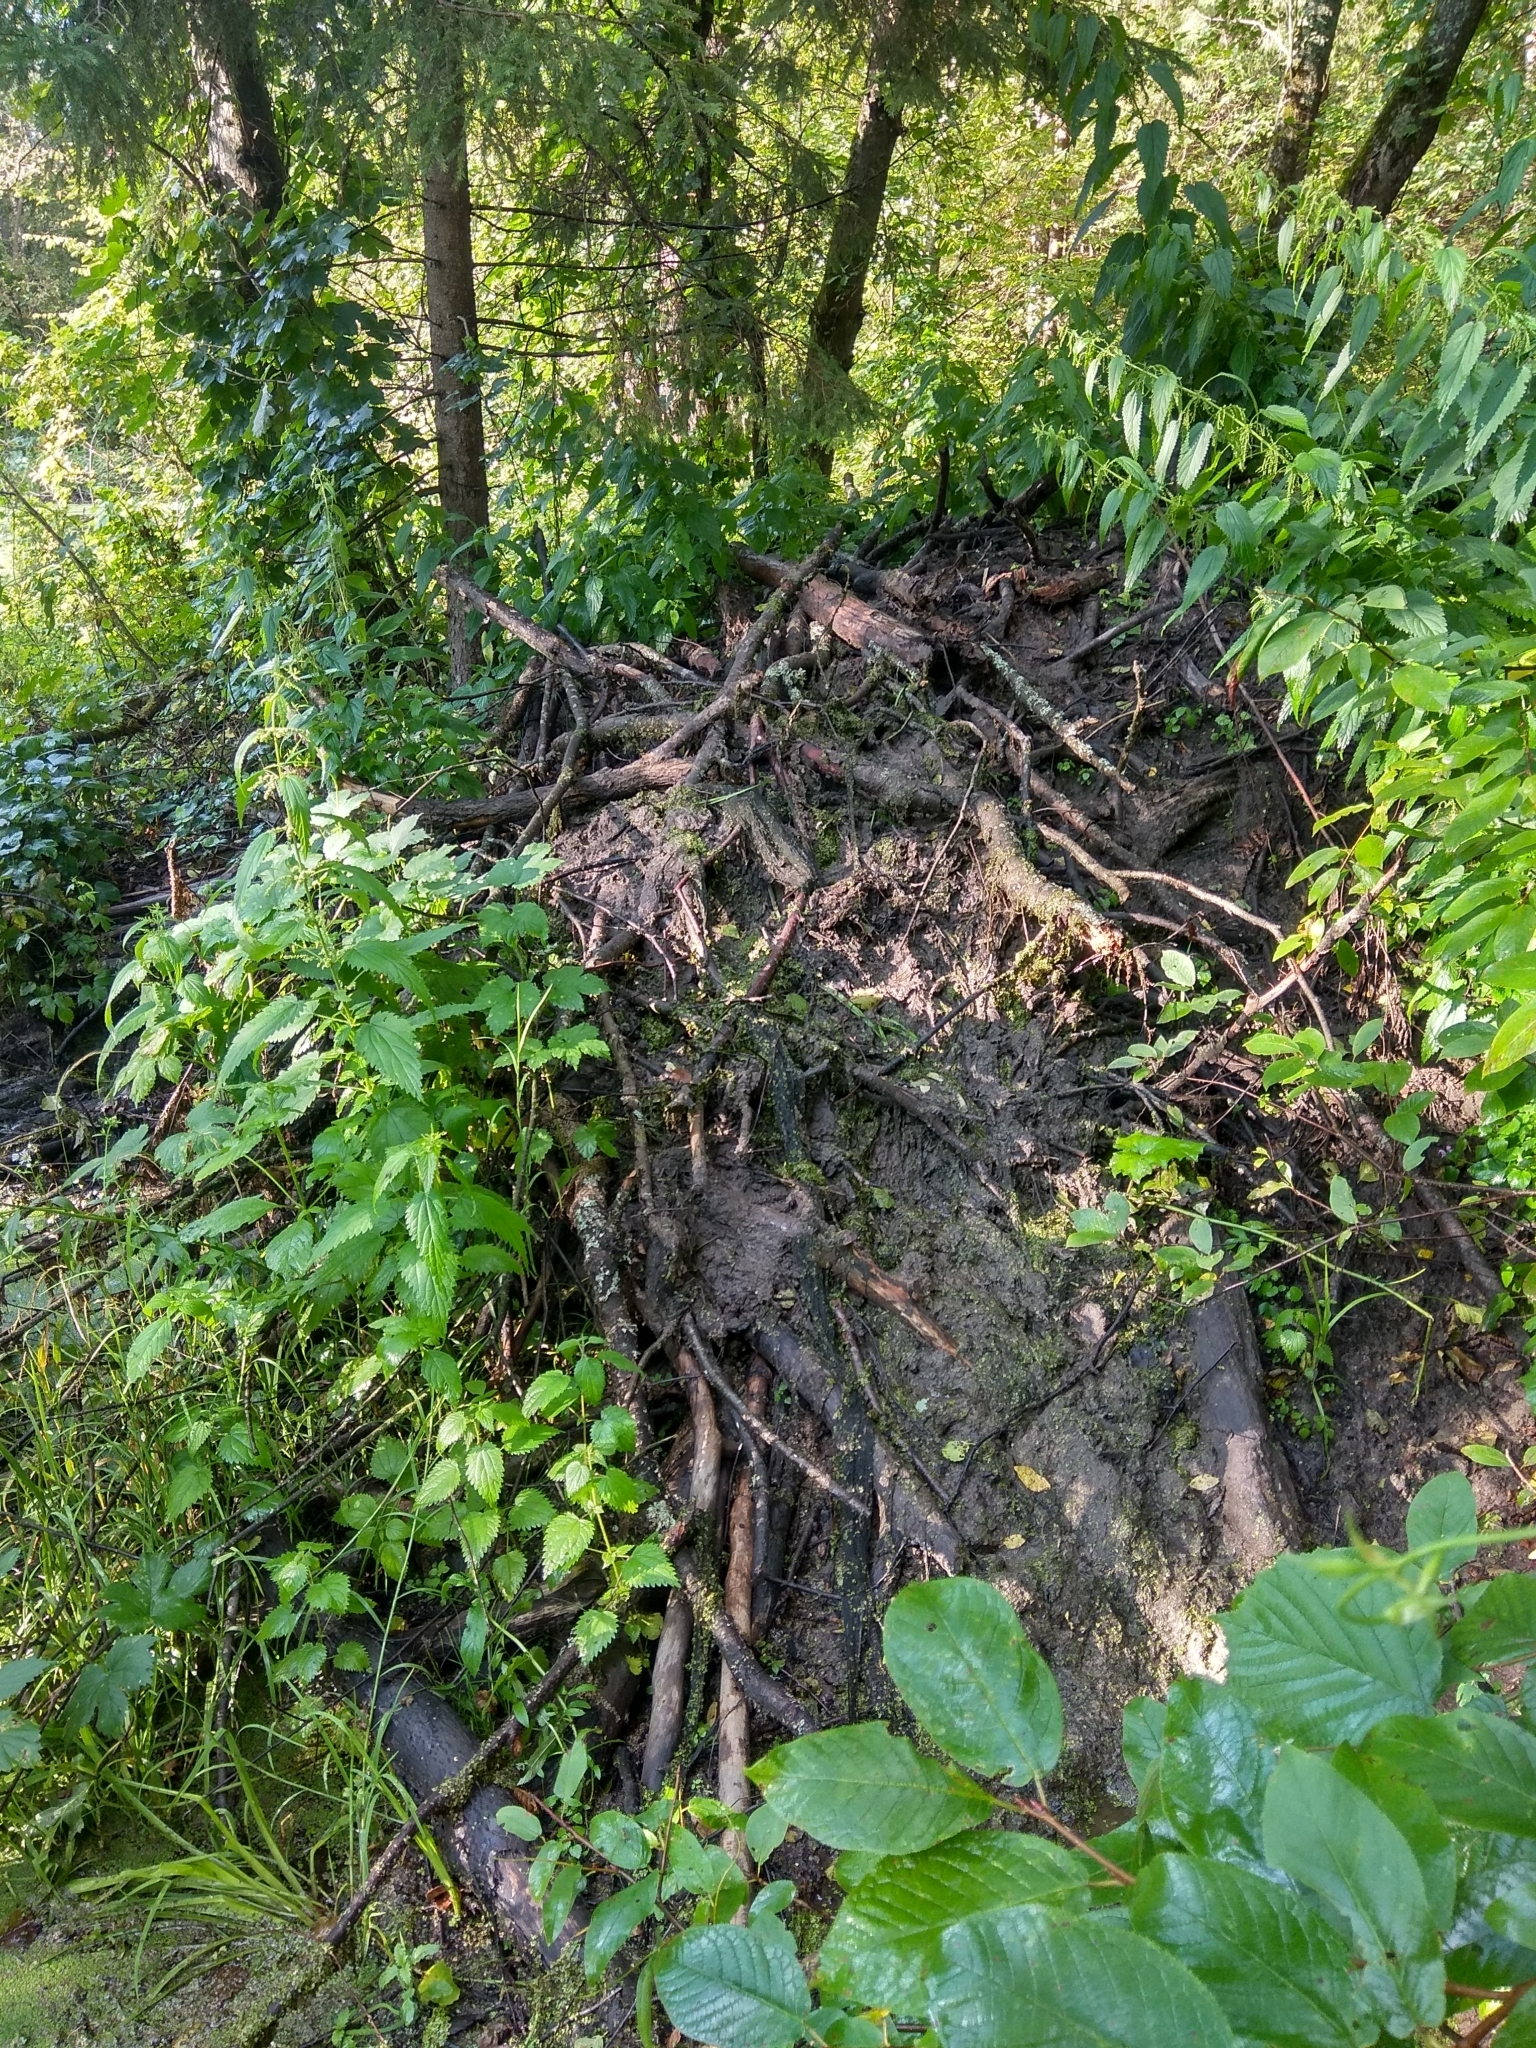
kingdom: Animalia
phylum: Chordata
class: Mammalia
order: Rodentia
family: Castoridae
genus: Castor
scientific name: Castor fiber
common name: Eurasian beaver
